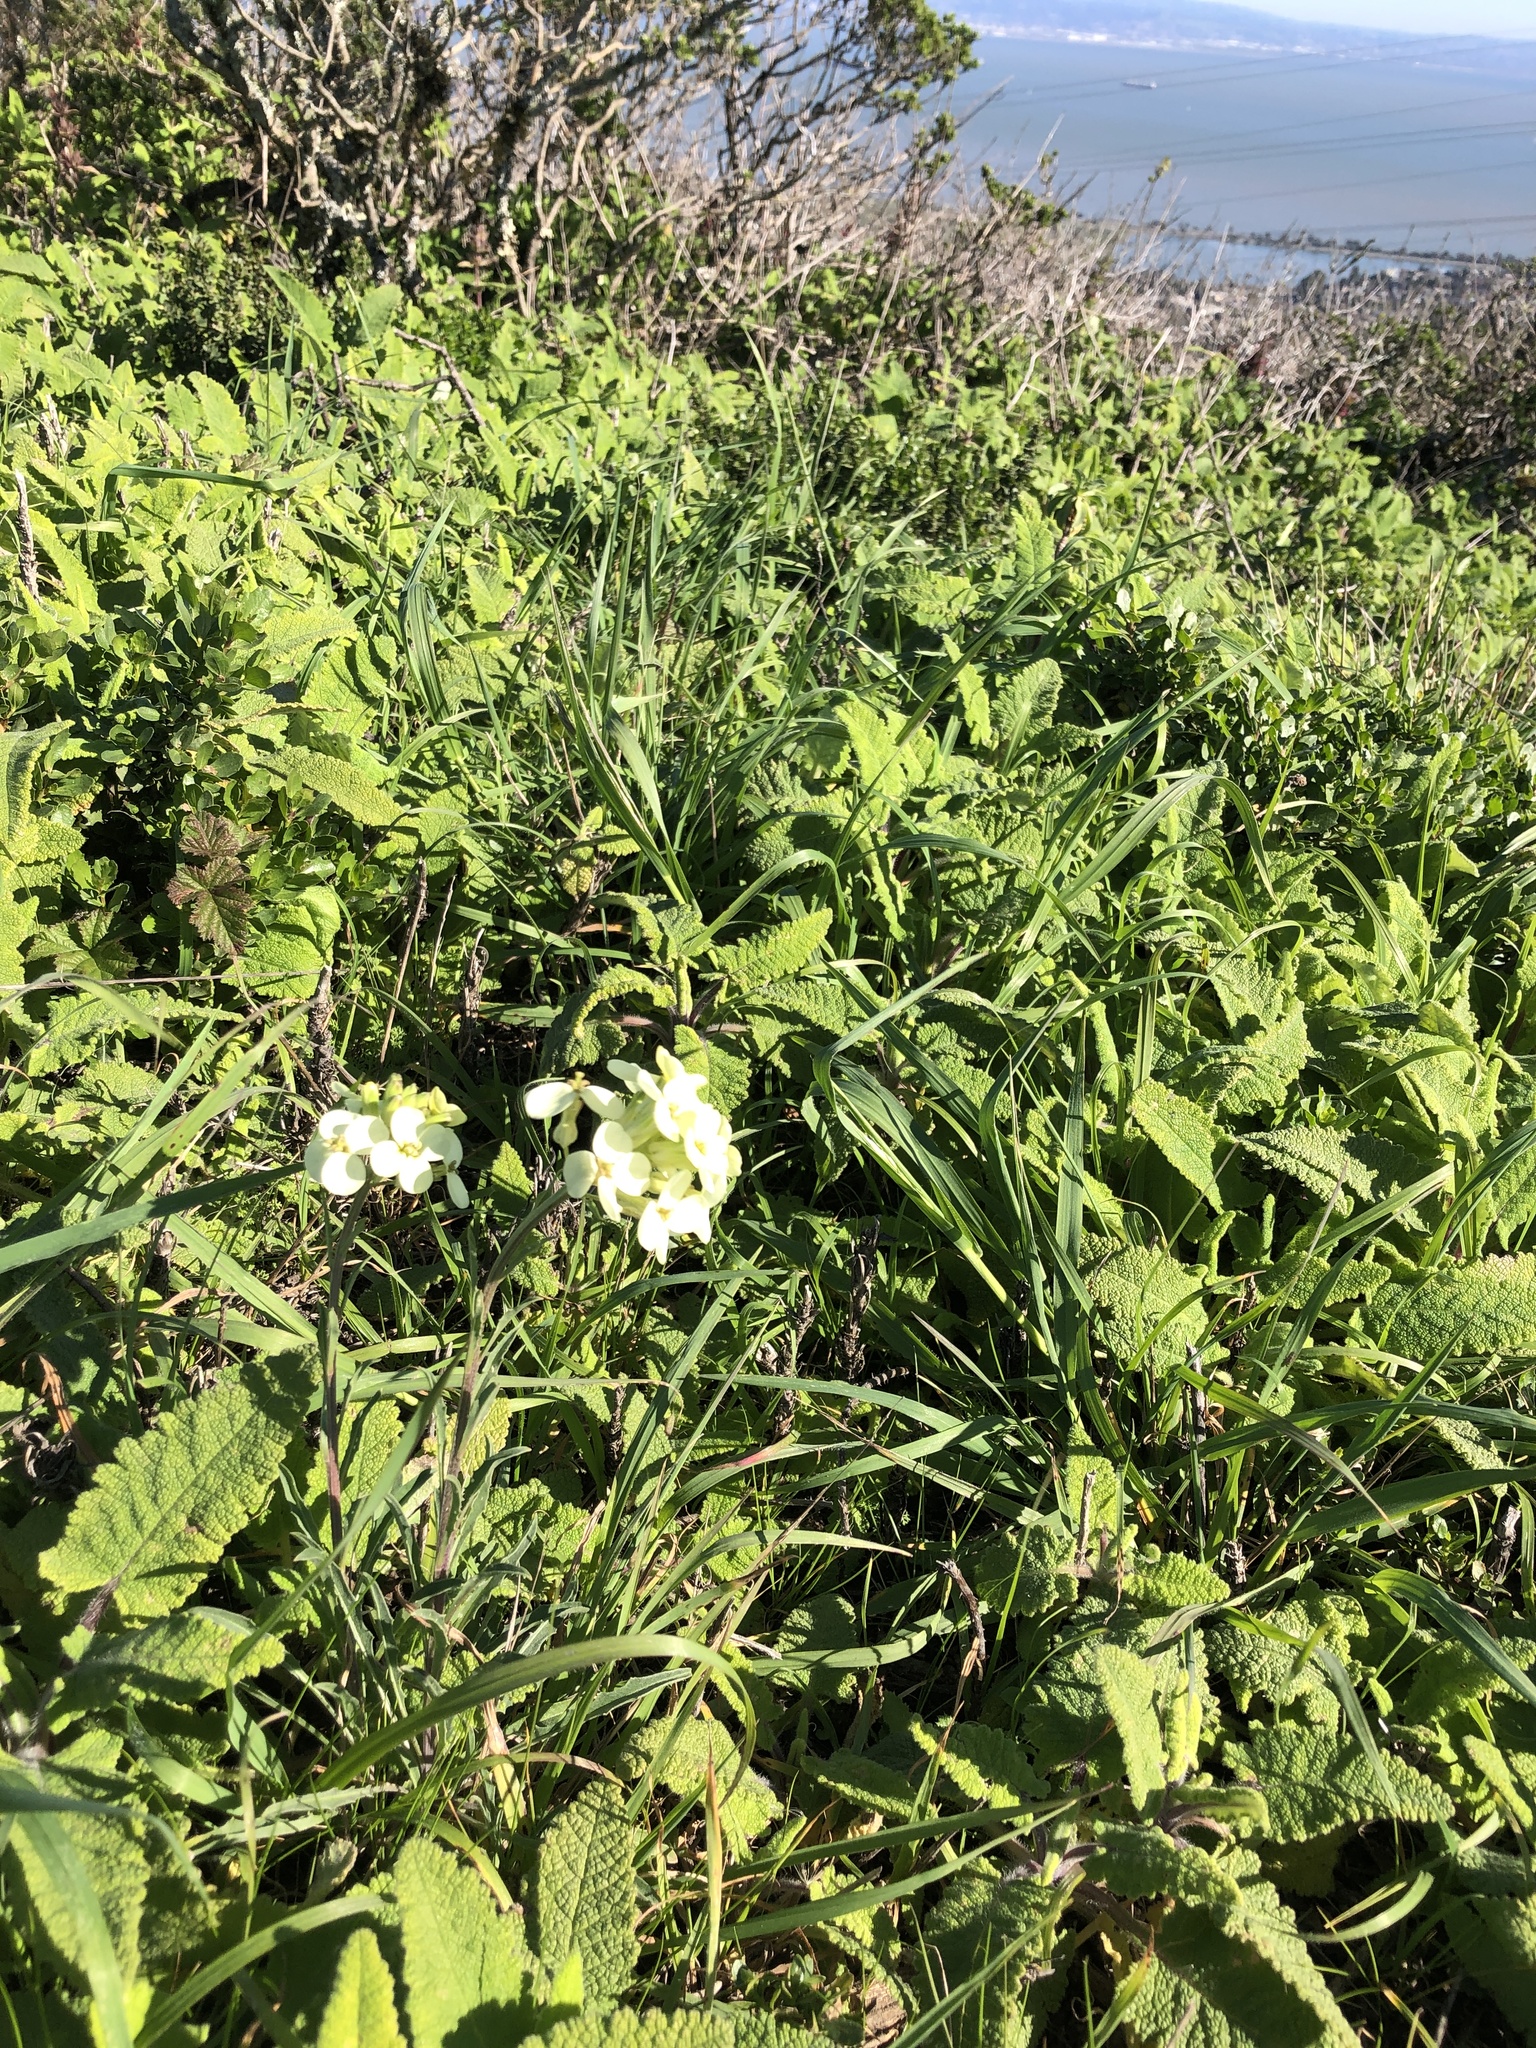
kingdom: Plantae
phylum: Tracheophyta
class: Magnoliopsida
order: Brassicales
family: Brassicaceae
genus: Erysimum
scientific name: Erysimum franciscanum
